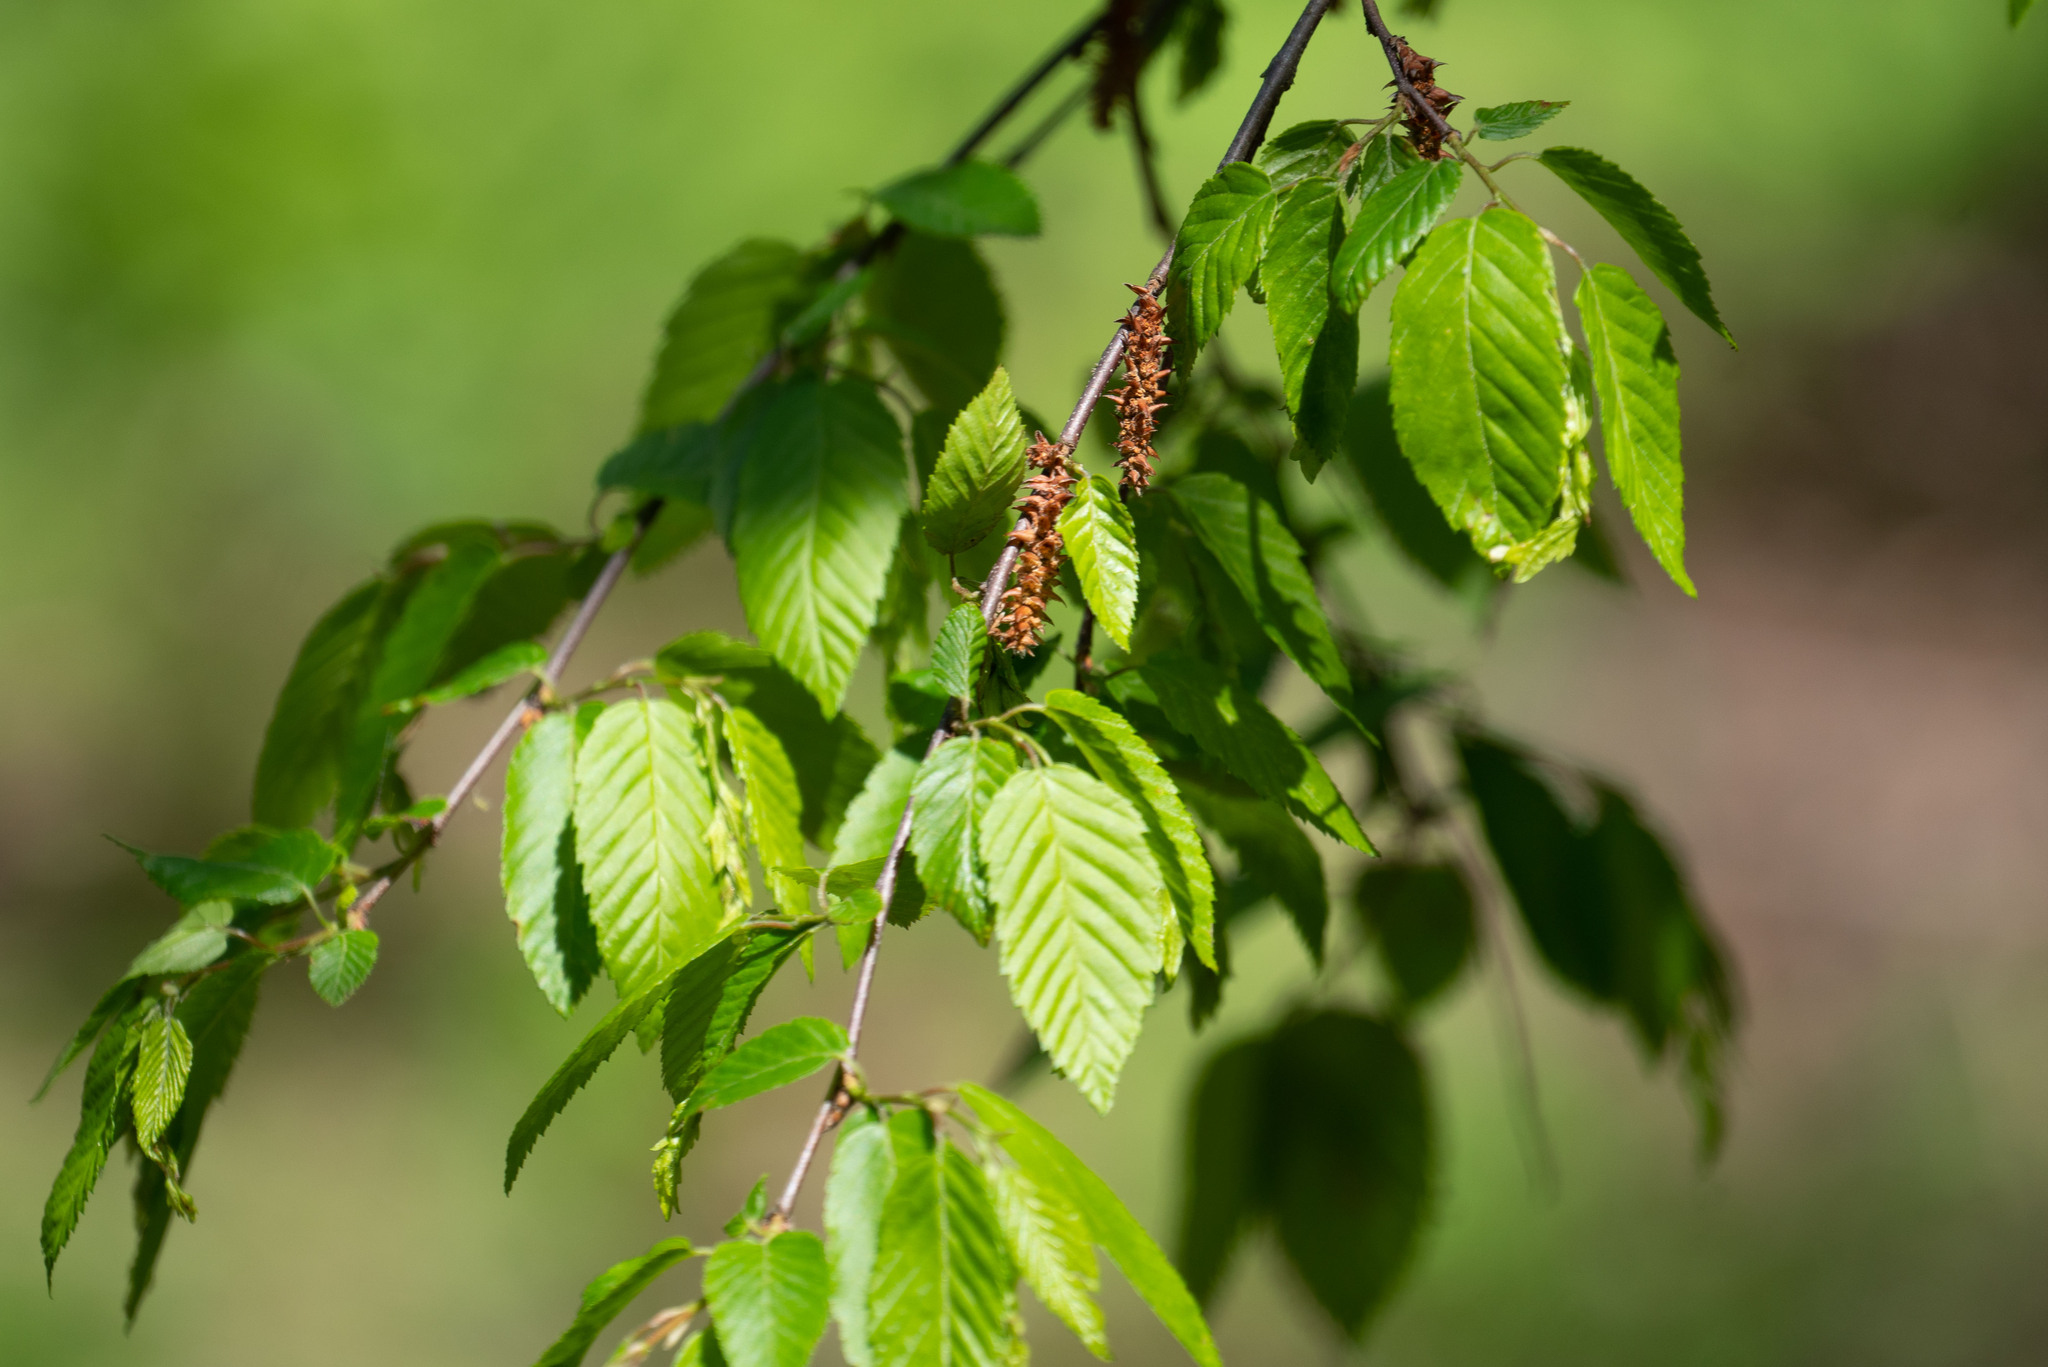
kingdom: Plantae
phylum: Tracheophyta
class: Magnoliopsida
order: Fagales
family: Betulaceae
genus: Carpinus
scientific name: Carpinus caroliniana
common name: American hornbeam
